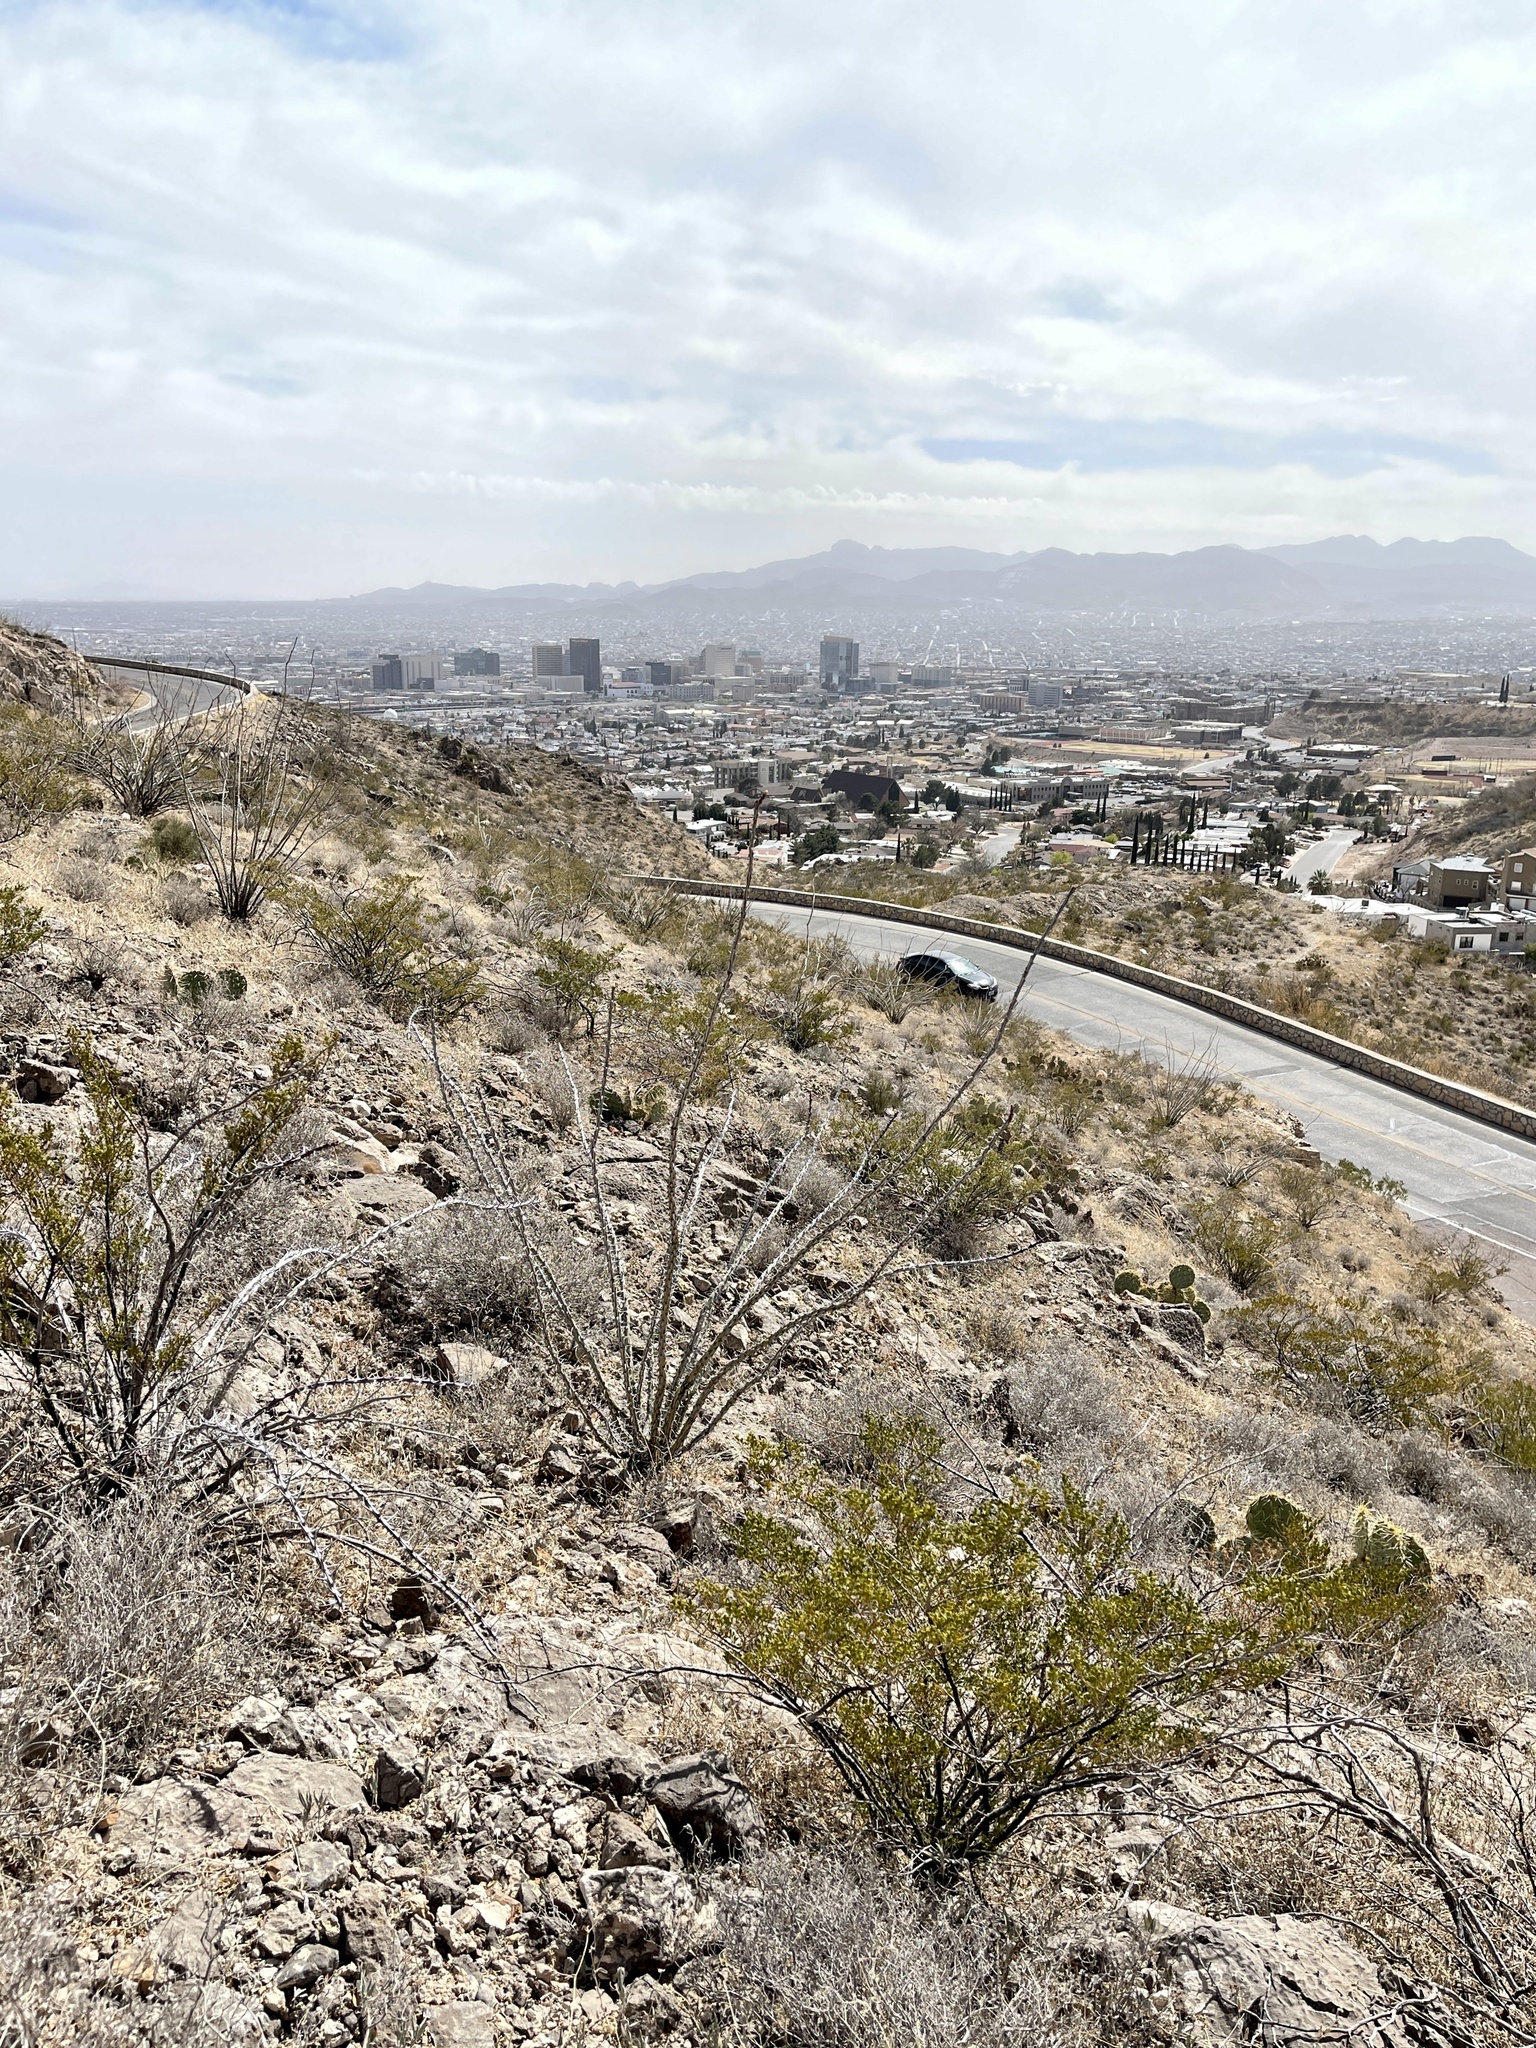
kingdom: Plantae
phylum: Tracheophyta
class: Magnoliopsida
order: Ericales
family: Fouquieriaceae
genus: Fouquieria
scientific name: Fouquieria splendens
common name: Vine-cactus
